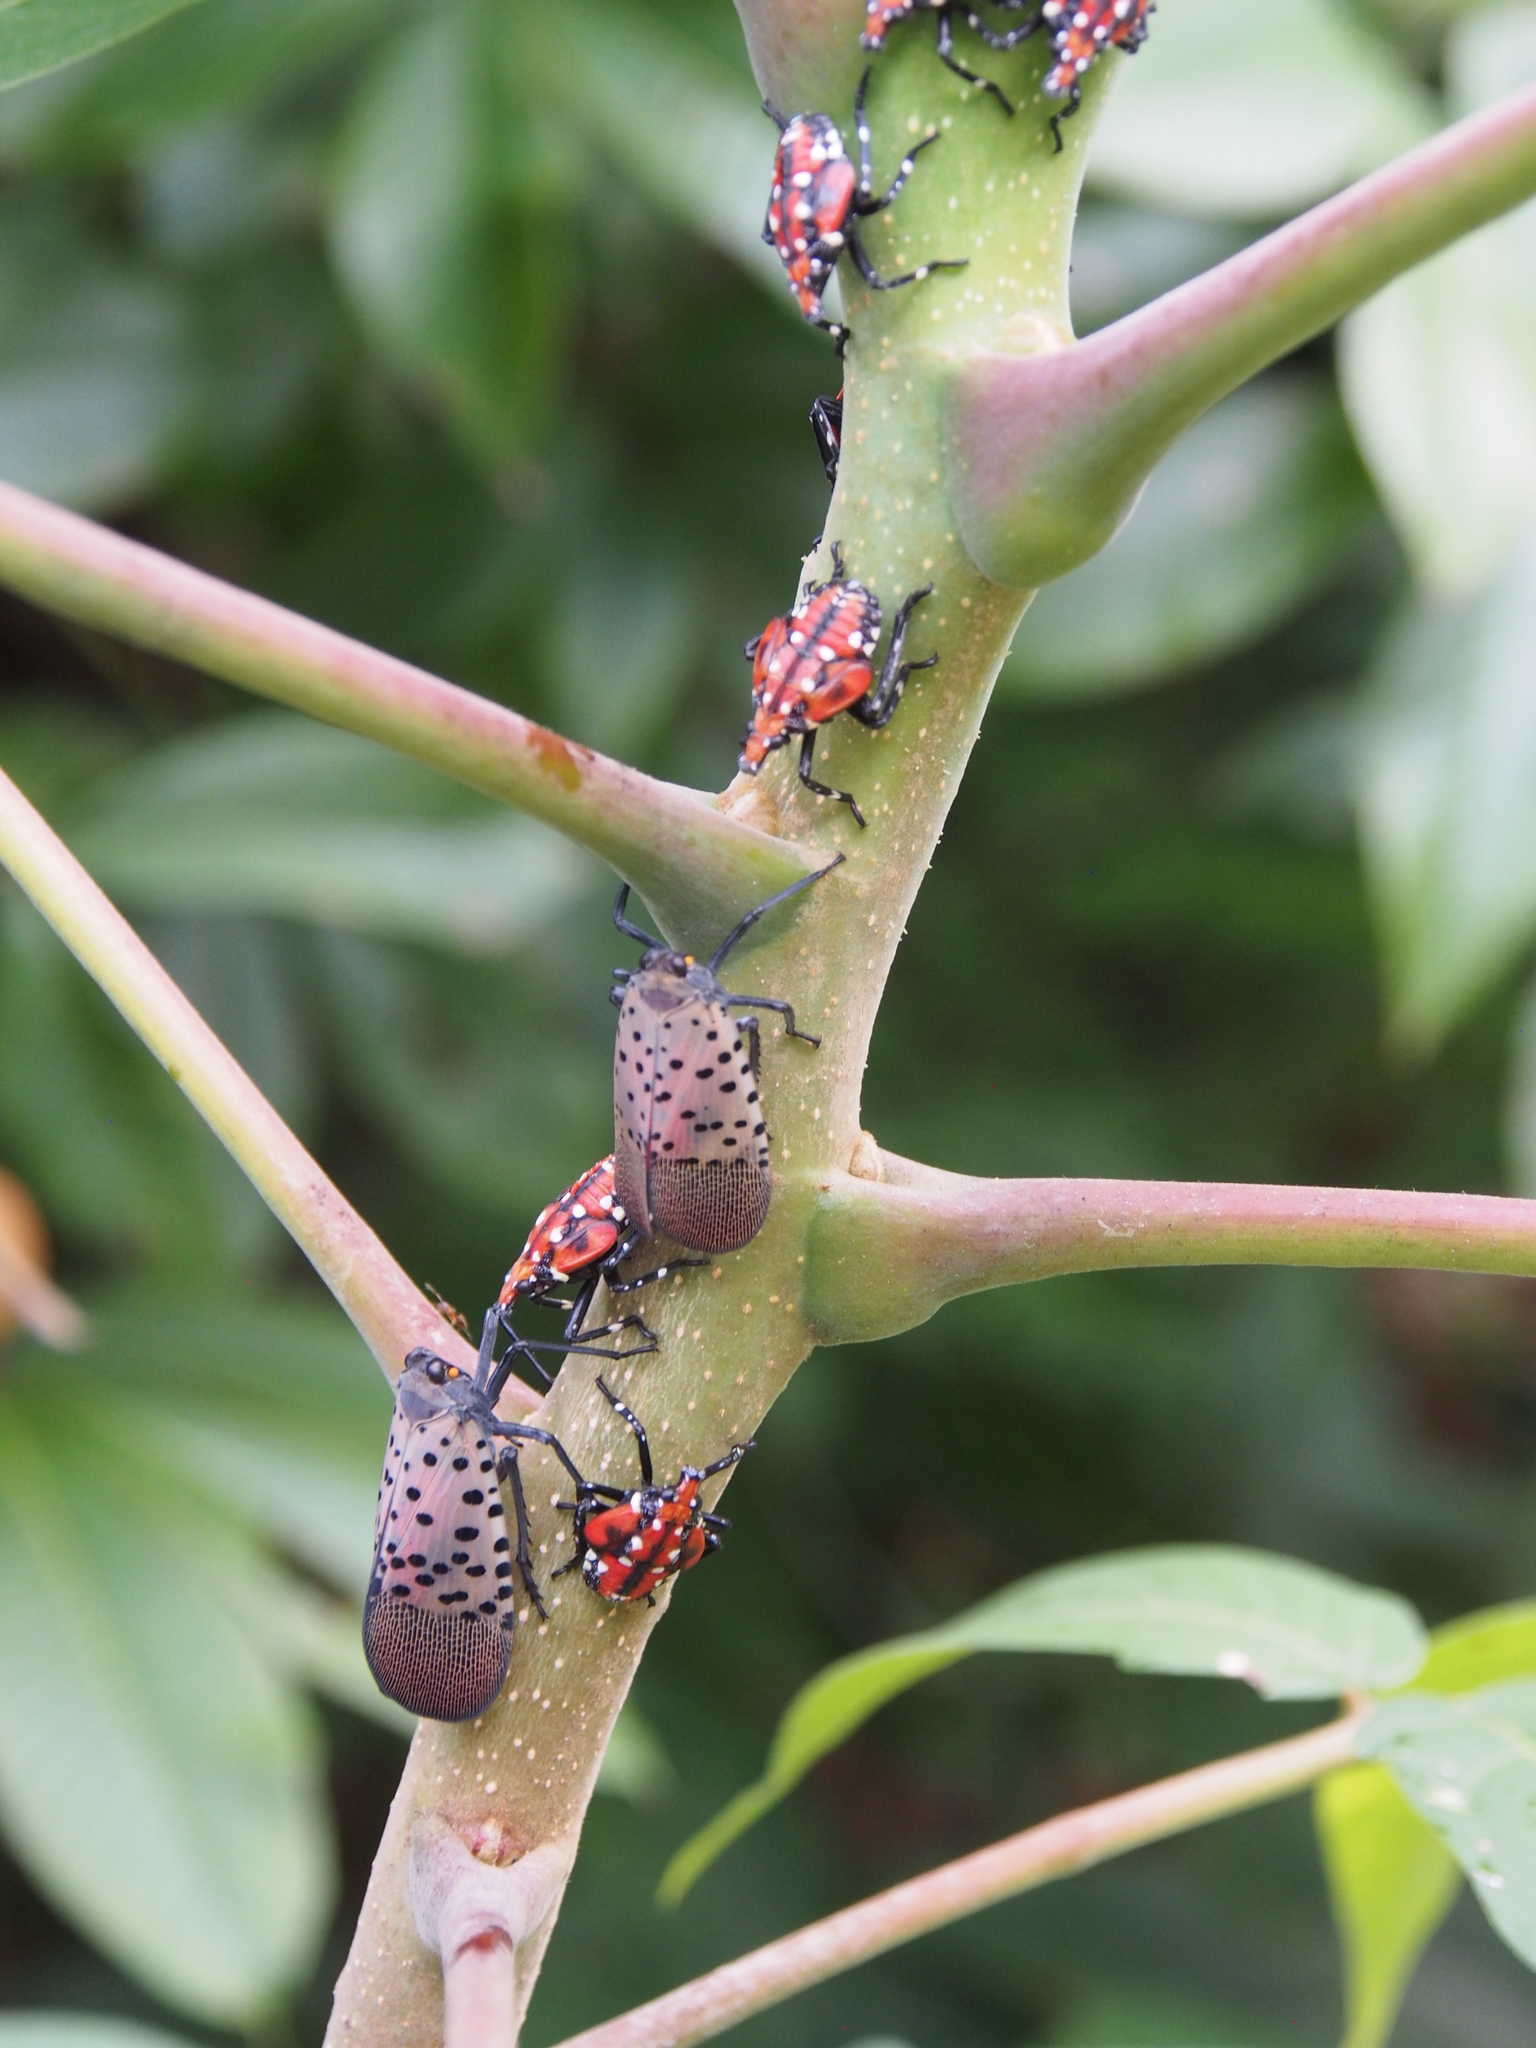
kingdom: Animalia
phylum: Arthropoda
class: Insecta
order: Hemiptera
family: Fulgoridae
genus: Lycorma
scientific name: Lycorma delicatula
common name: Spotted lanternfly
